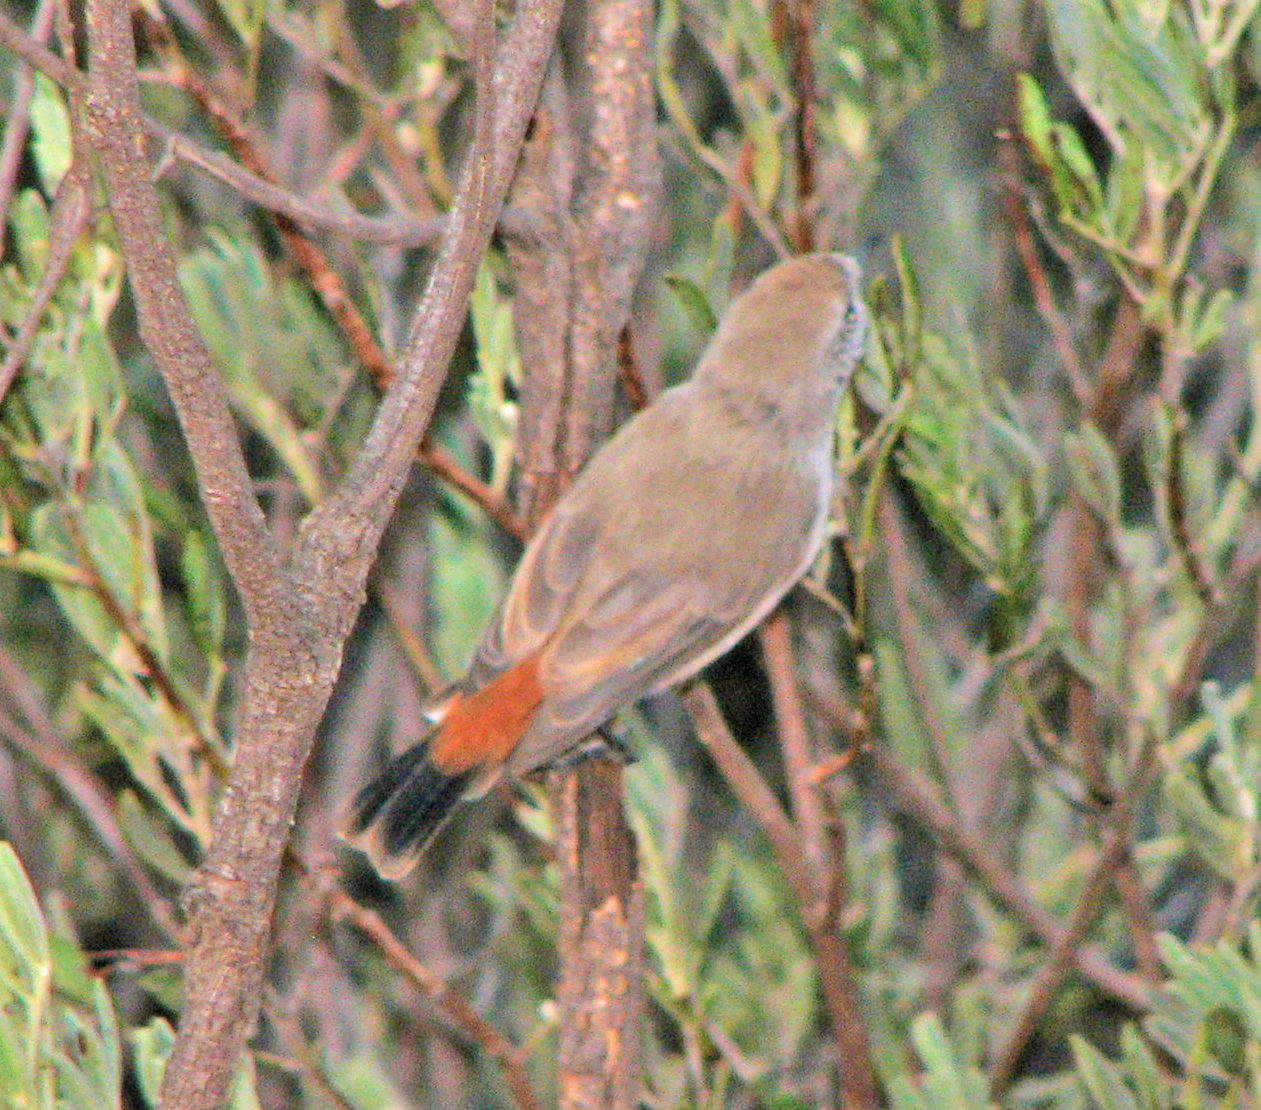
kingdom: Animalia
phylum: Chordata
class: Aves
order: Passeriformes
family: Acanthizidae
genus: Acanthiza
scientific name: Acanthiza uropygialis
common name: Chestnut-rumped thornbill
